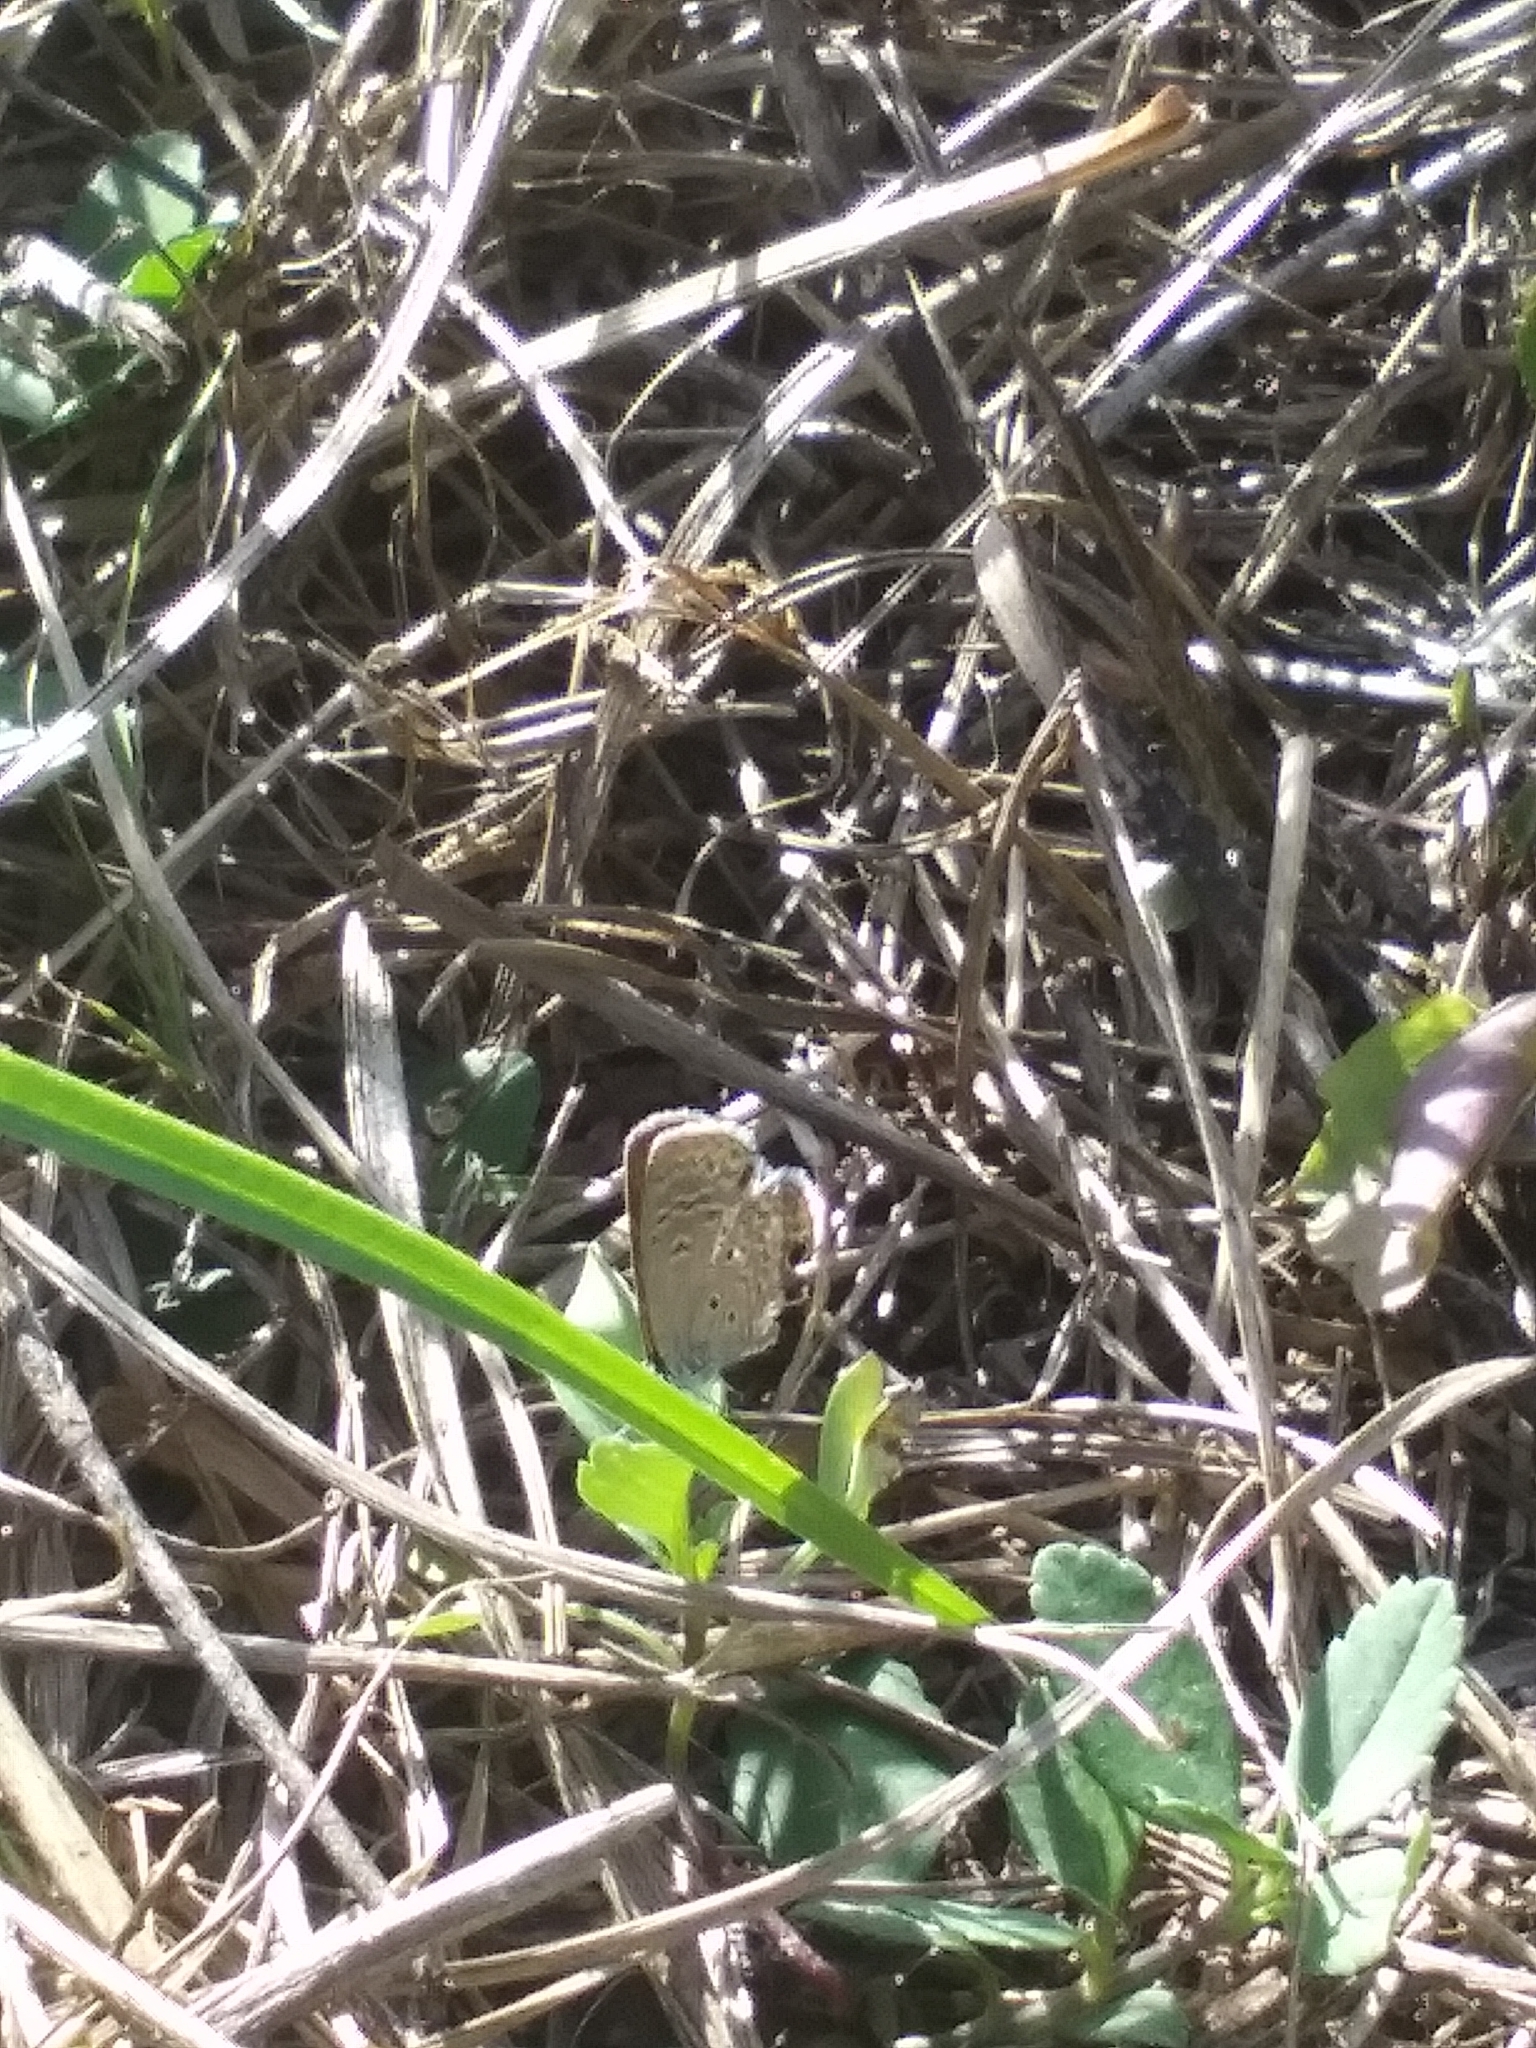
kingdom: Animalia
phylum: Arthropoda
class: Insecta
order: Lepidoptera
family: Lycaenidae
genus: Hemiargus
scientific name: Hemiargus ceraunus
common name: Ceraunus blue
